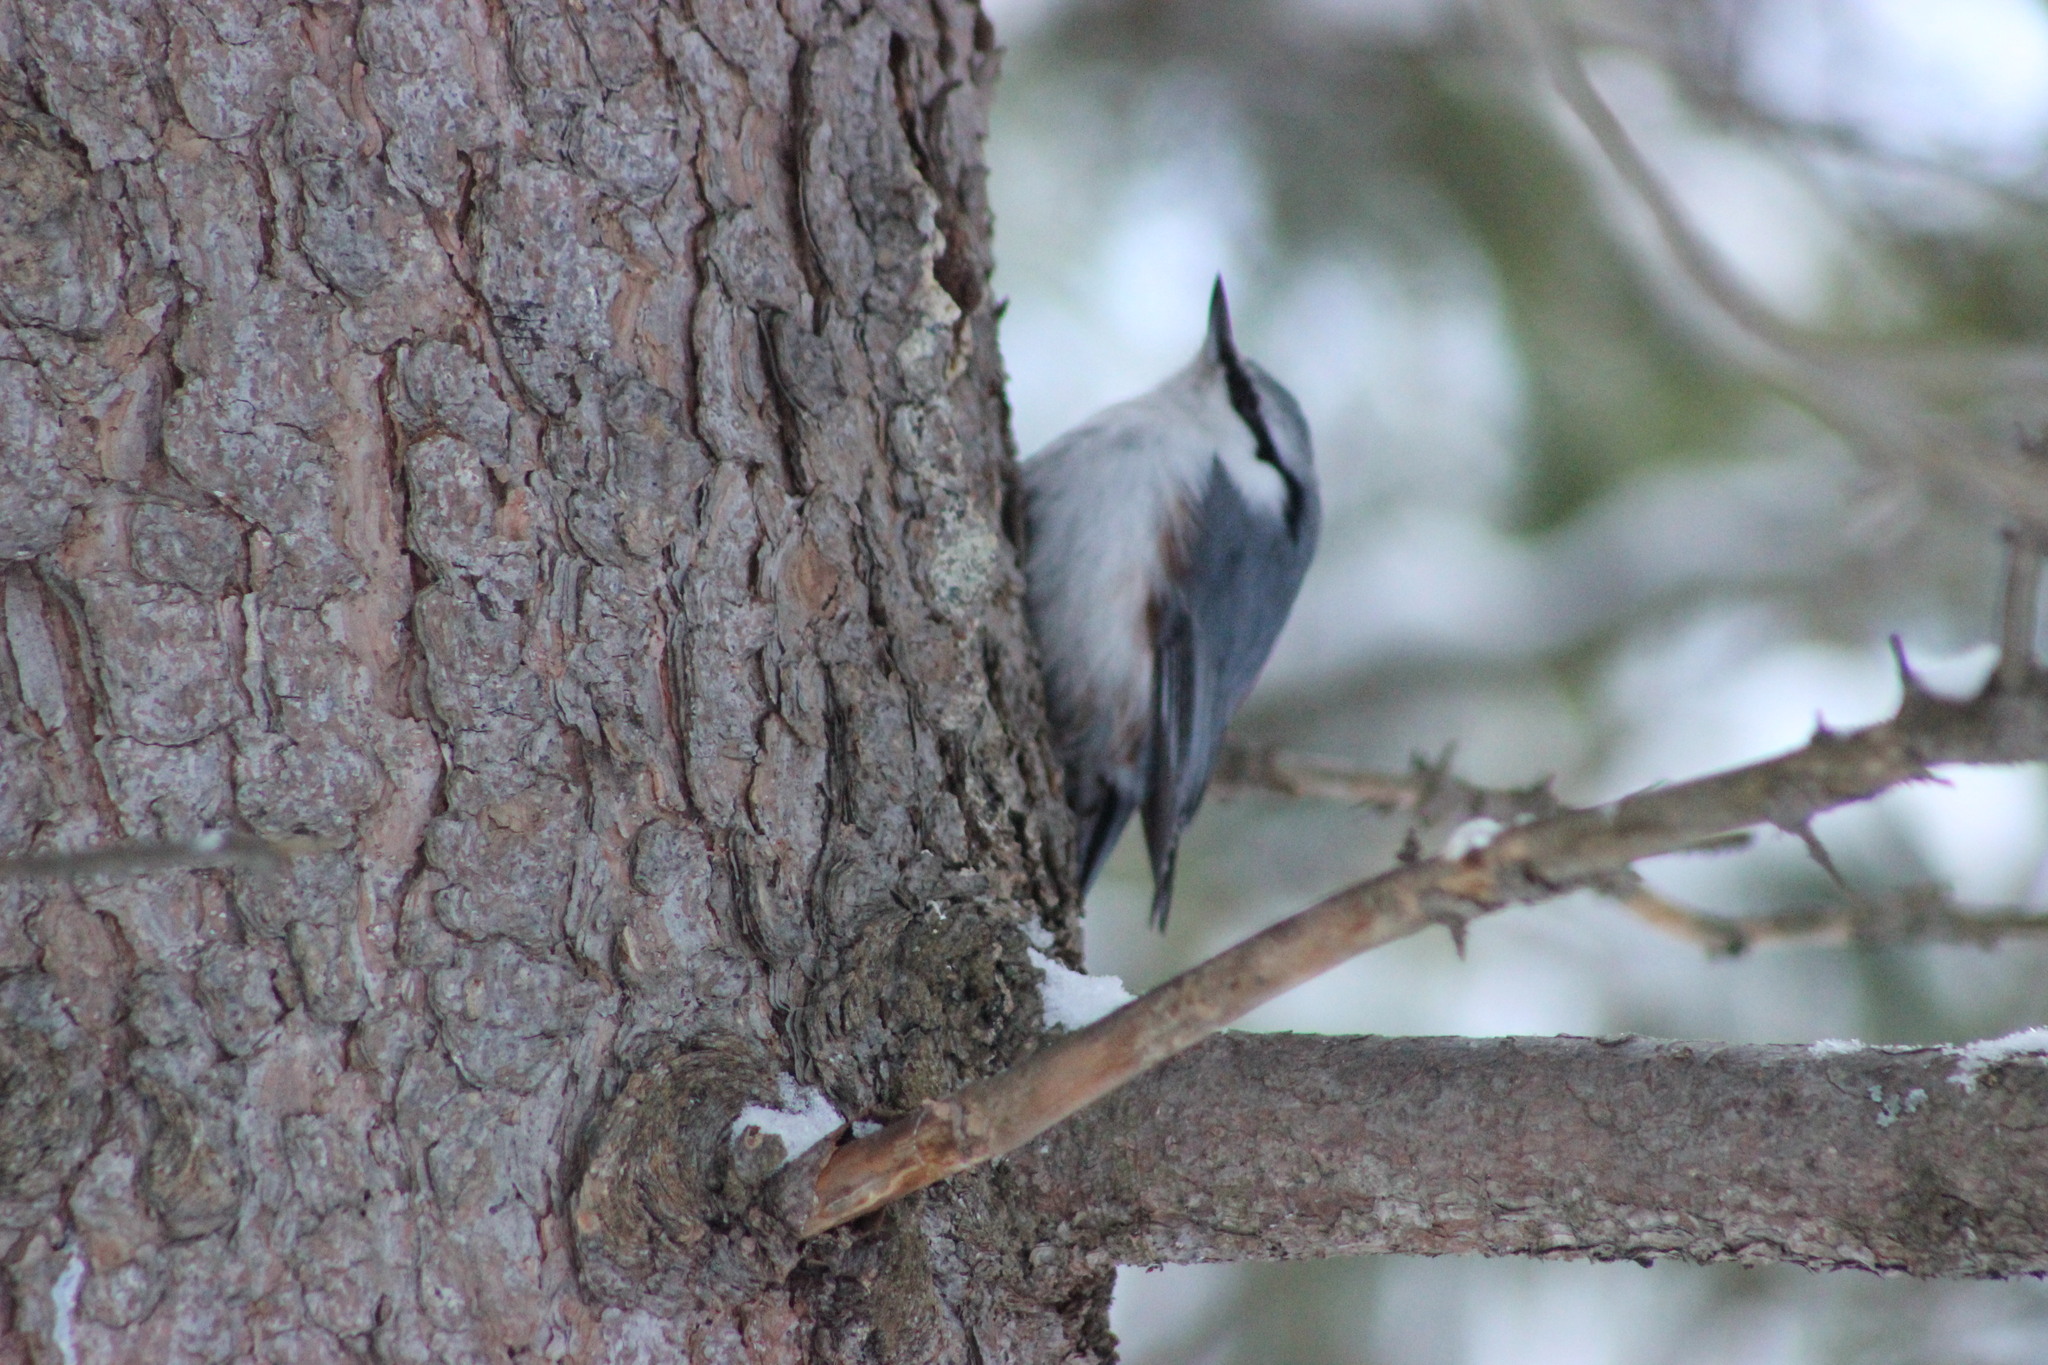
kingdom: Animalia
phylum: Chordata
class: Aves
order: Passeriformes
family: Sittidae
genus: Sitta
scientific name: Sitta europaea
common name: Eurasian nuthatch
